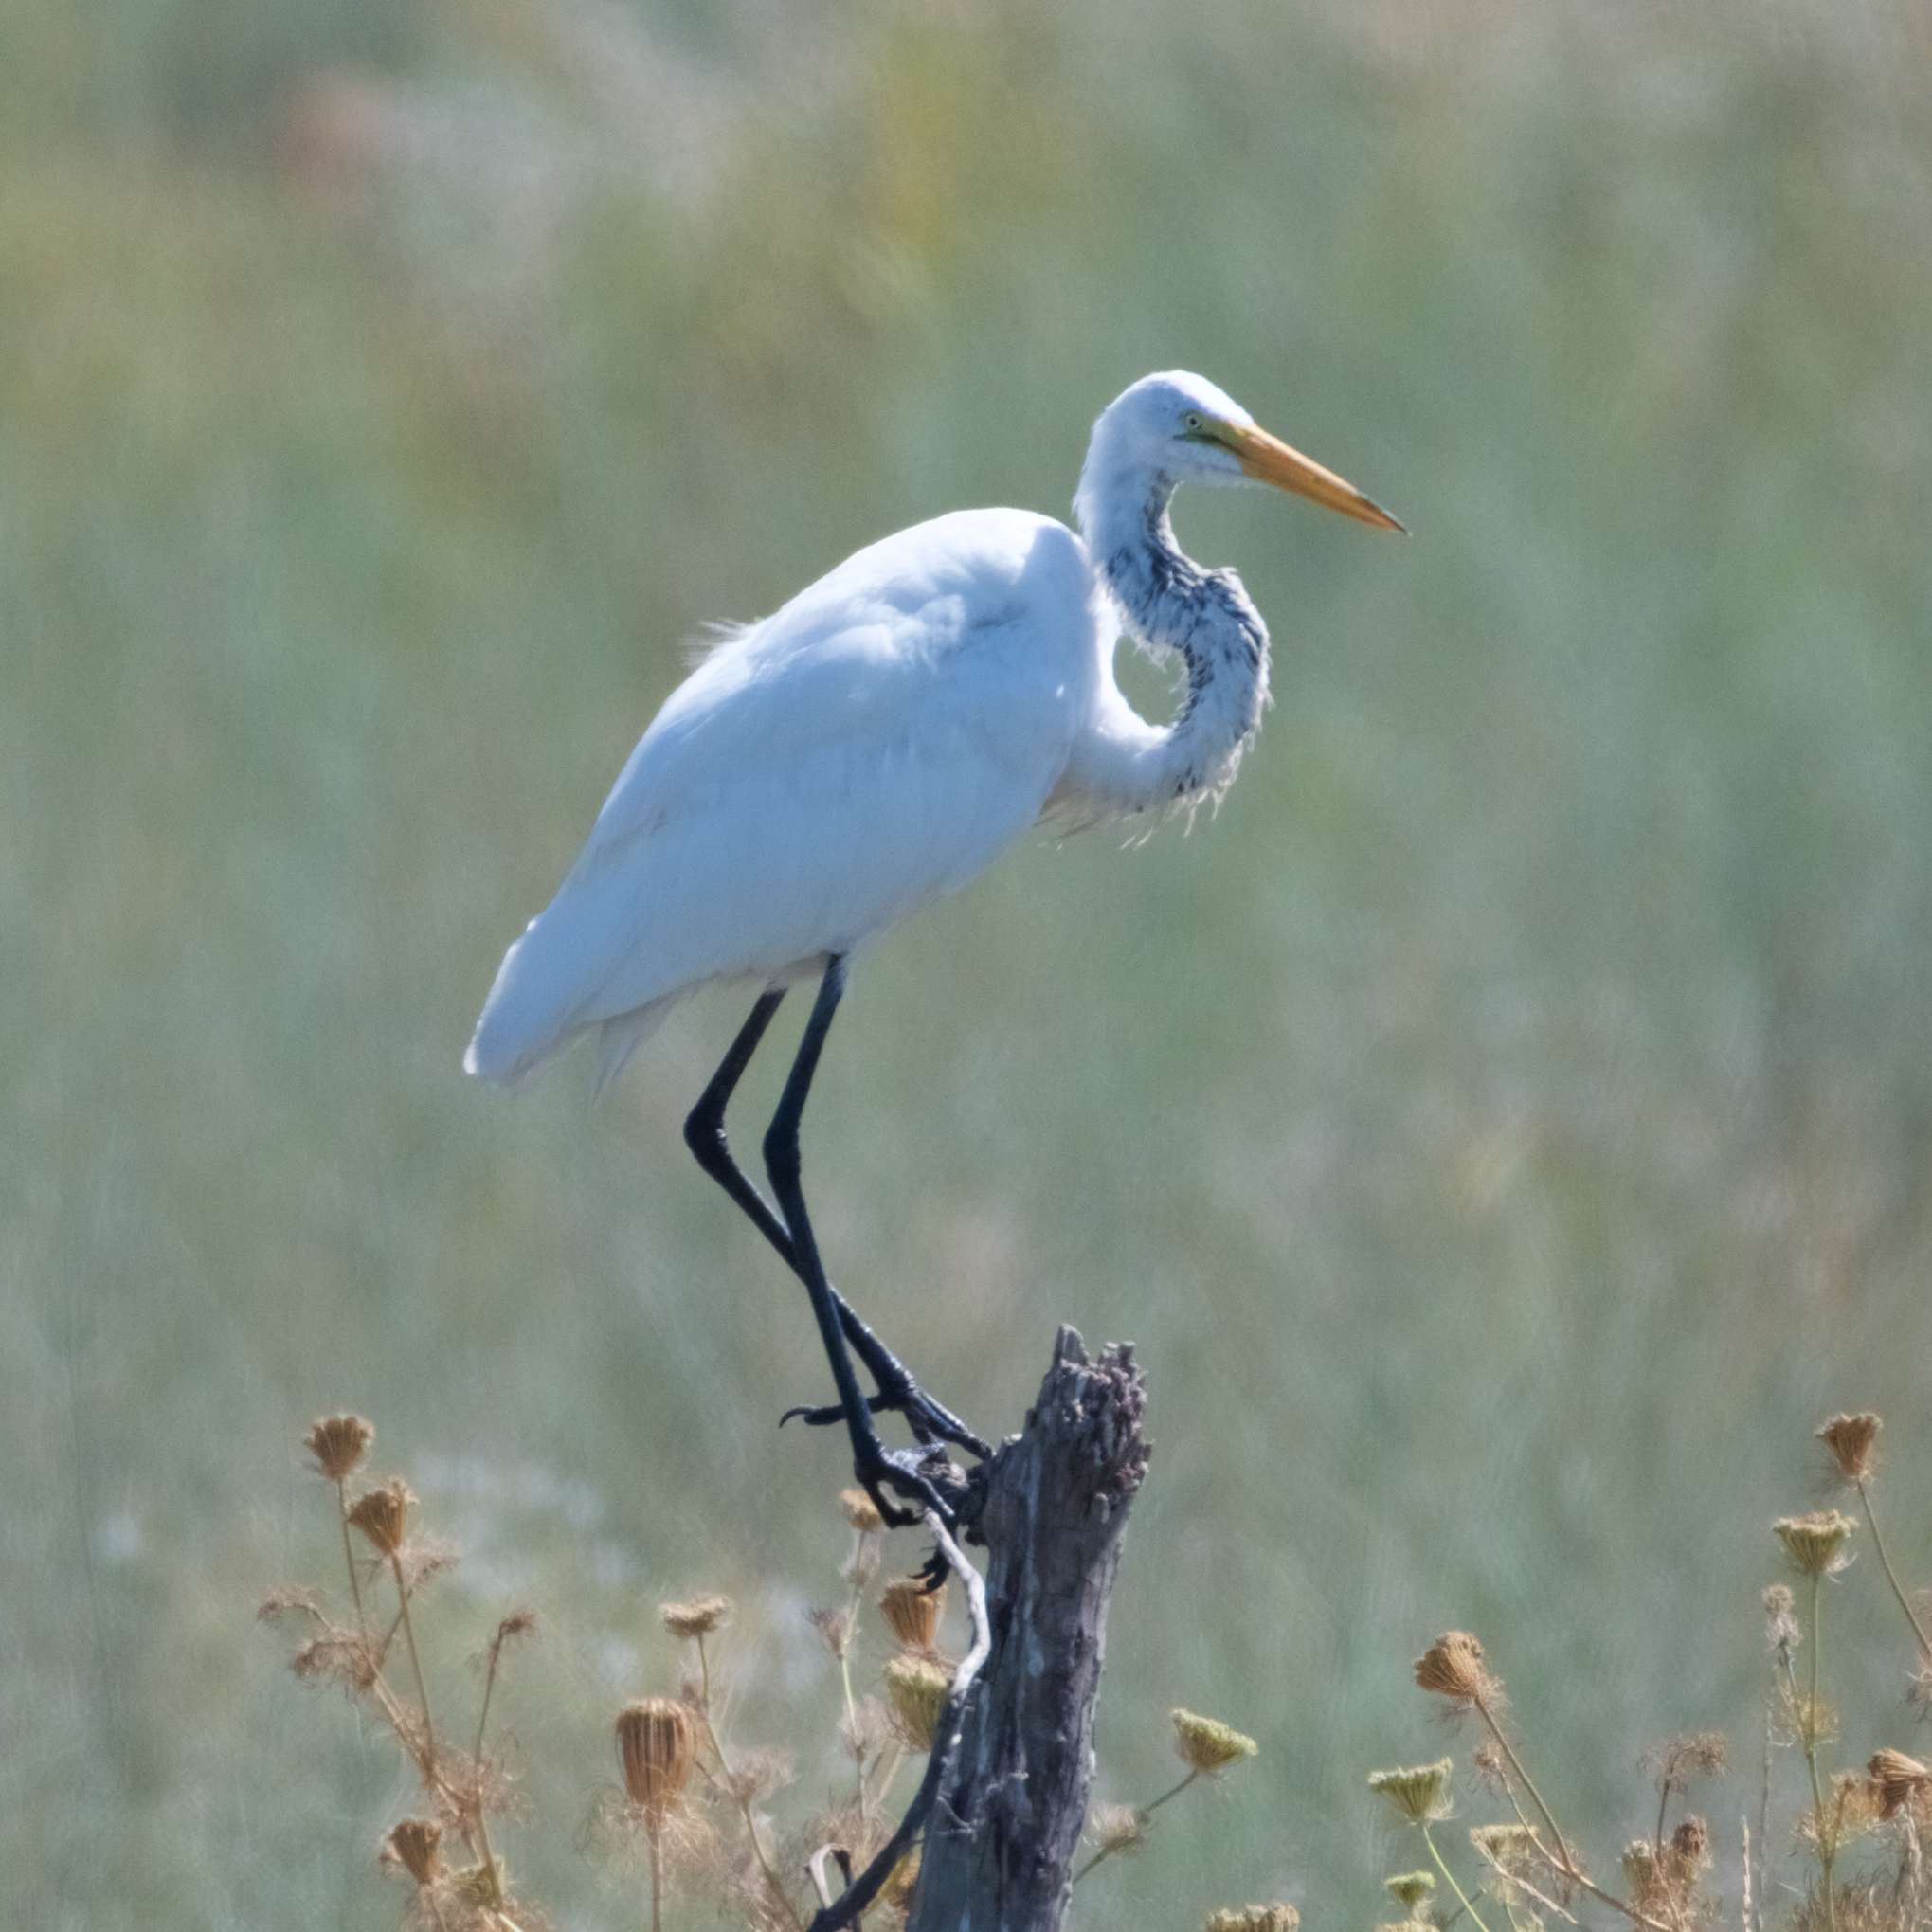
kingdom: Animalia
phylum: Chordata
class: Aves
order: Pelecaniformes
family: Ardeidae
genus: Ardea
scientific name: Ardea alba
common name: Great egret
